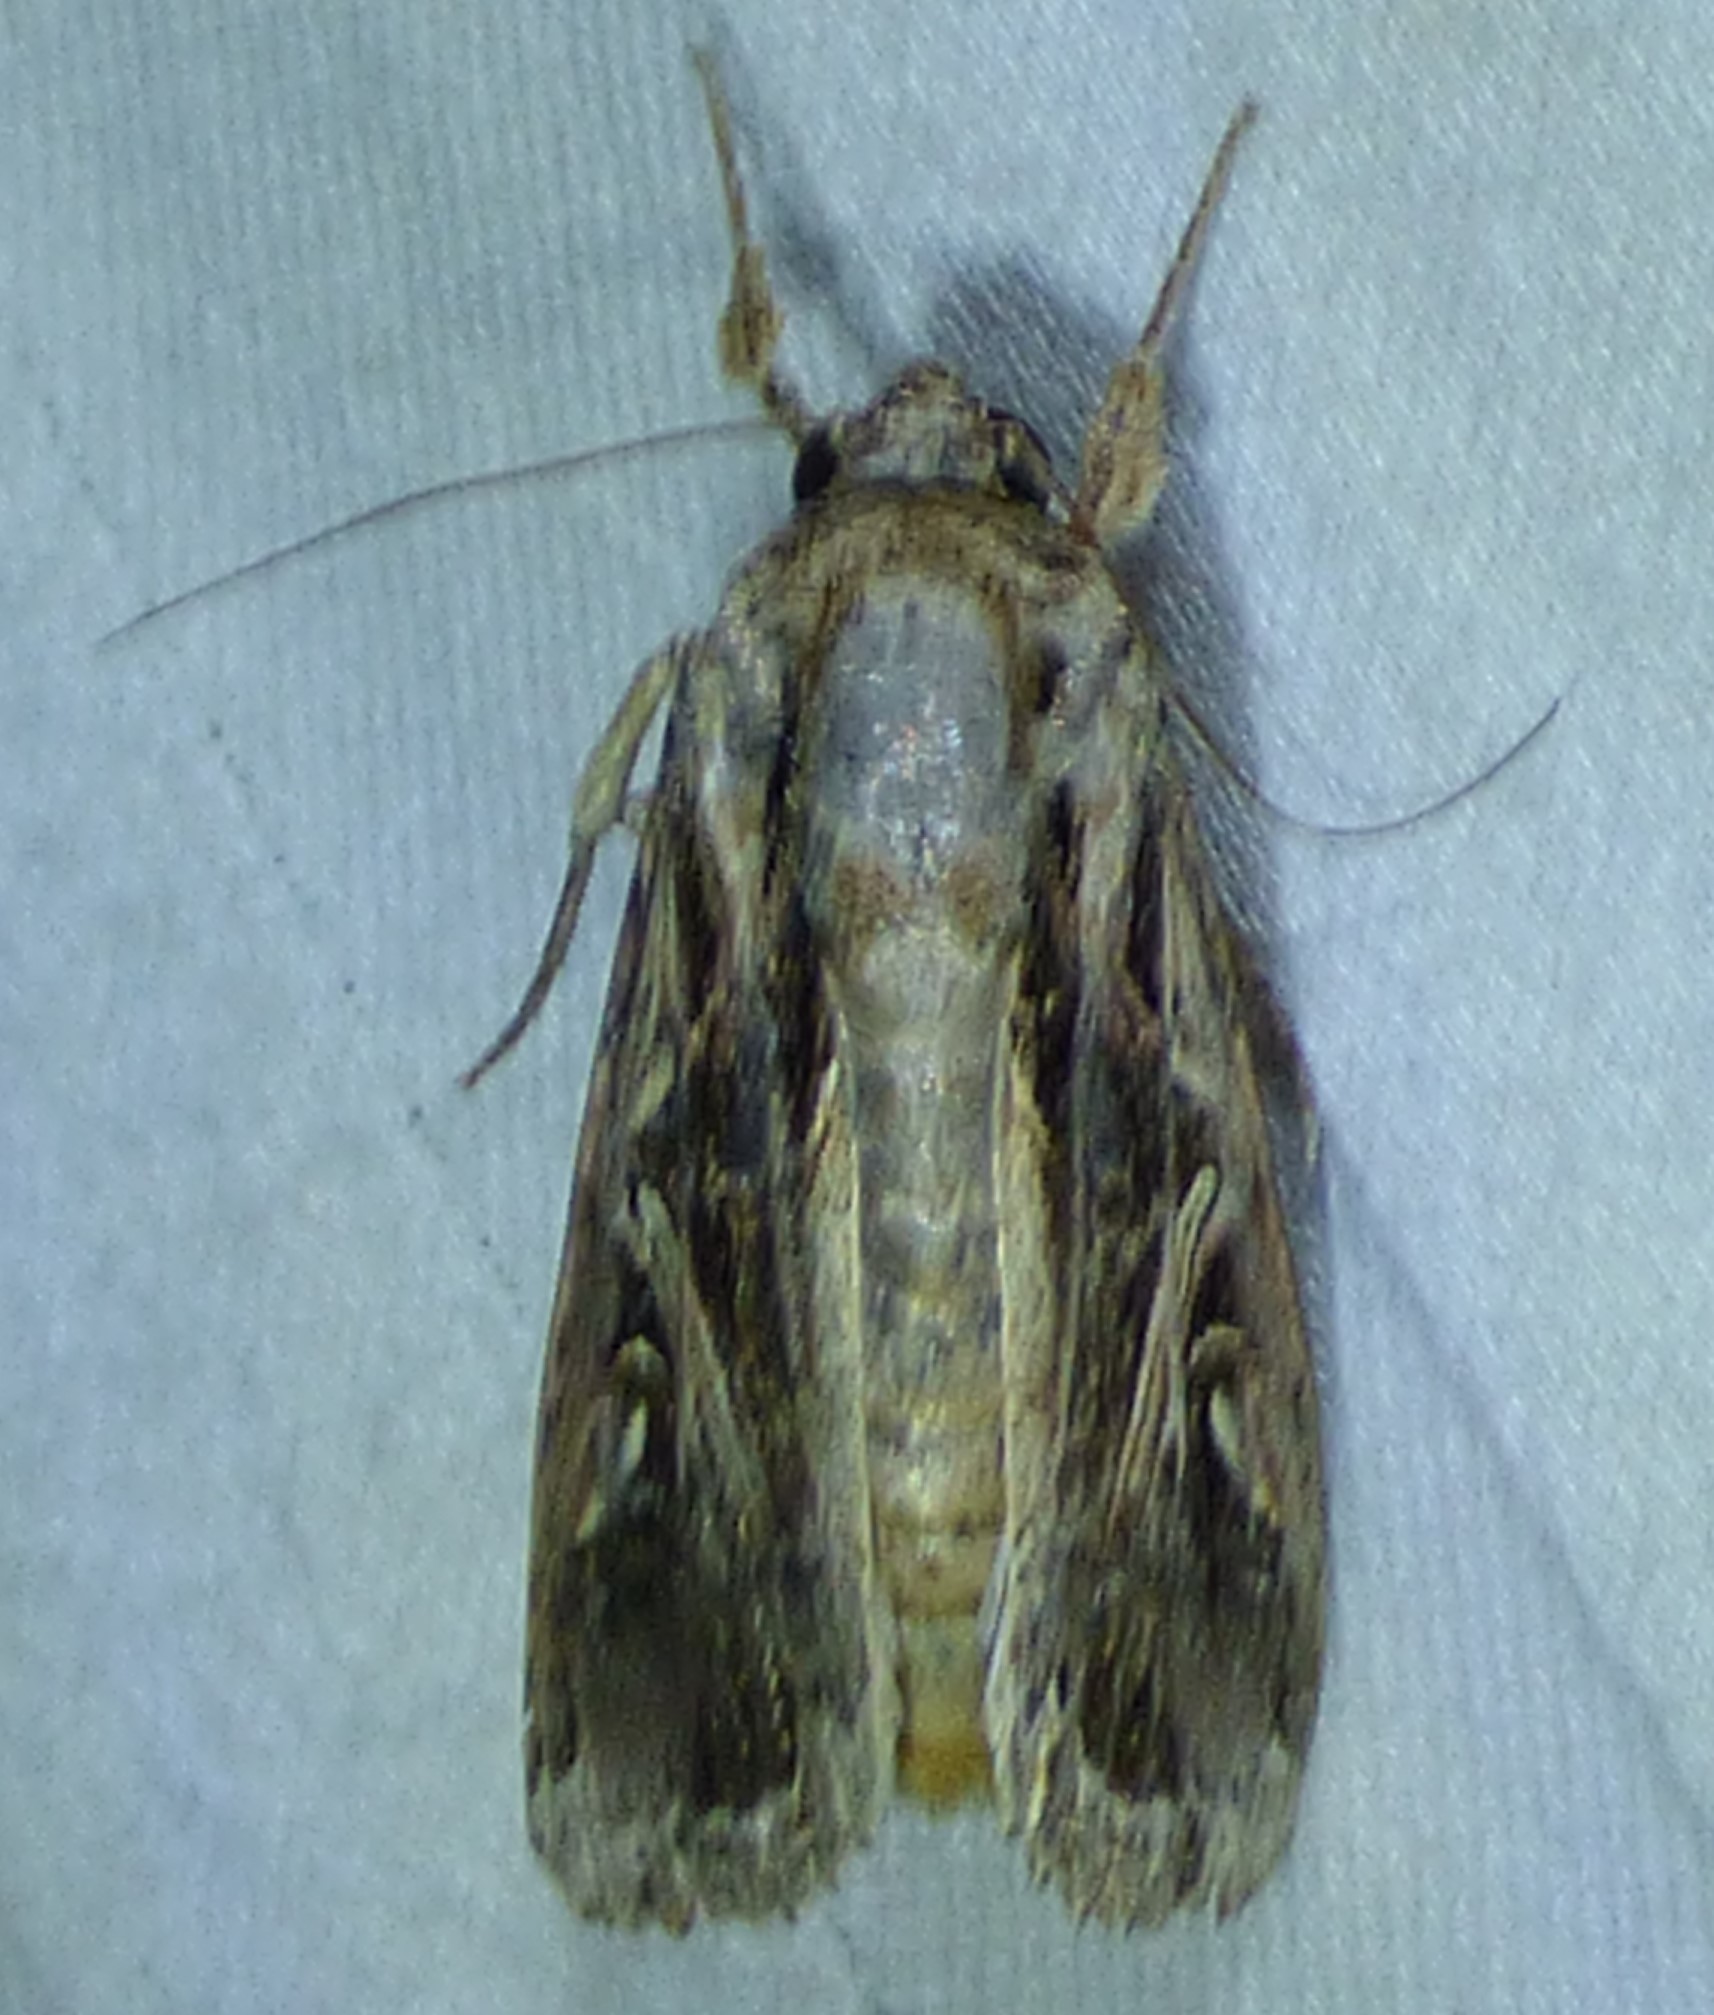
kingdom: Animalia
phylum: Arthropoda
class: Insecta
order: Lepidoptera
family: Noctuidae
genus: Spodoptera
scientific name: Spodoptera dolichos
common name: Sweetpotato armyworm
